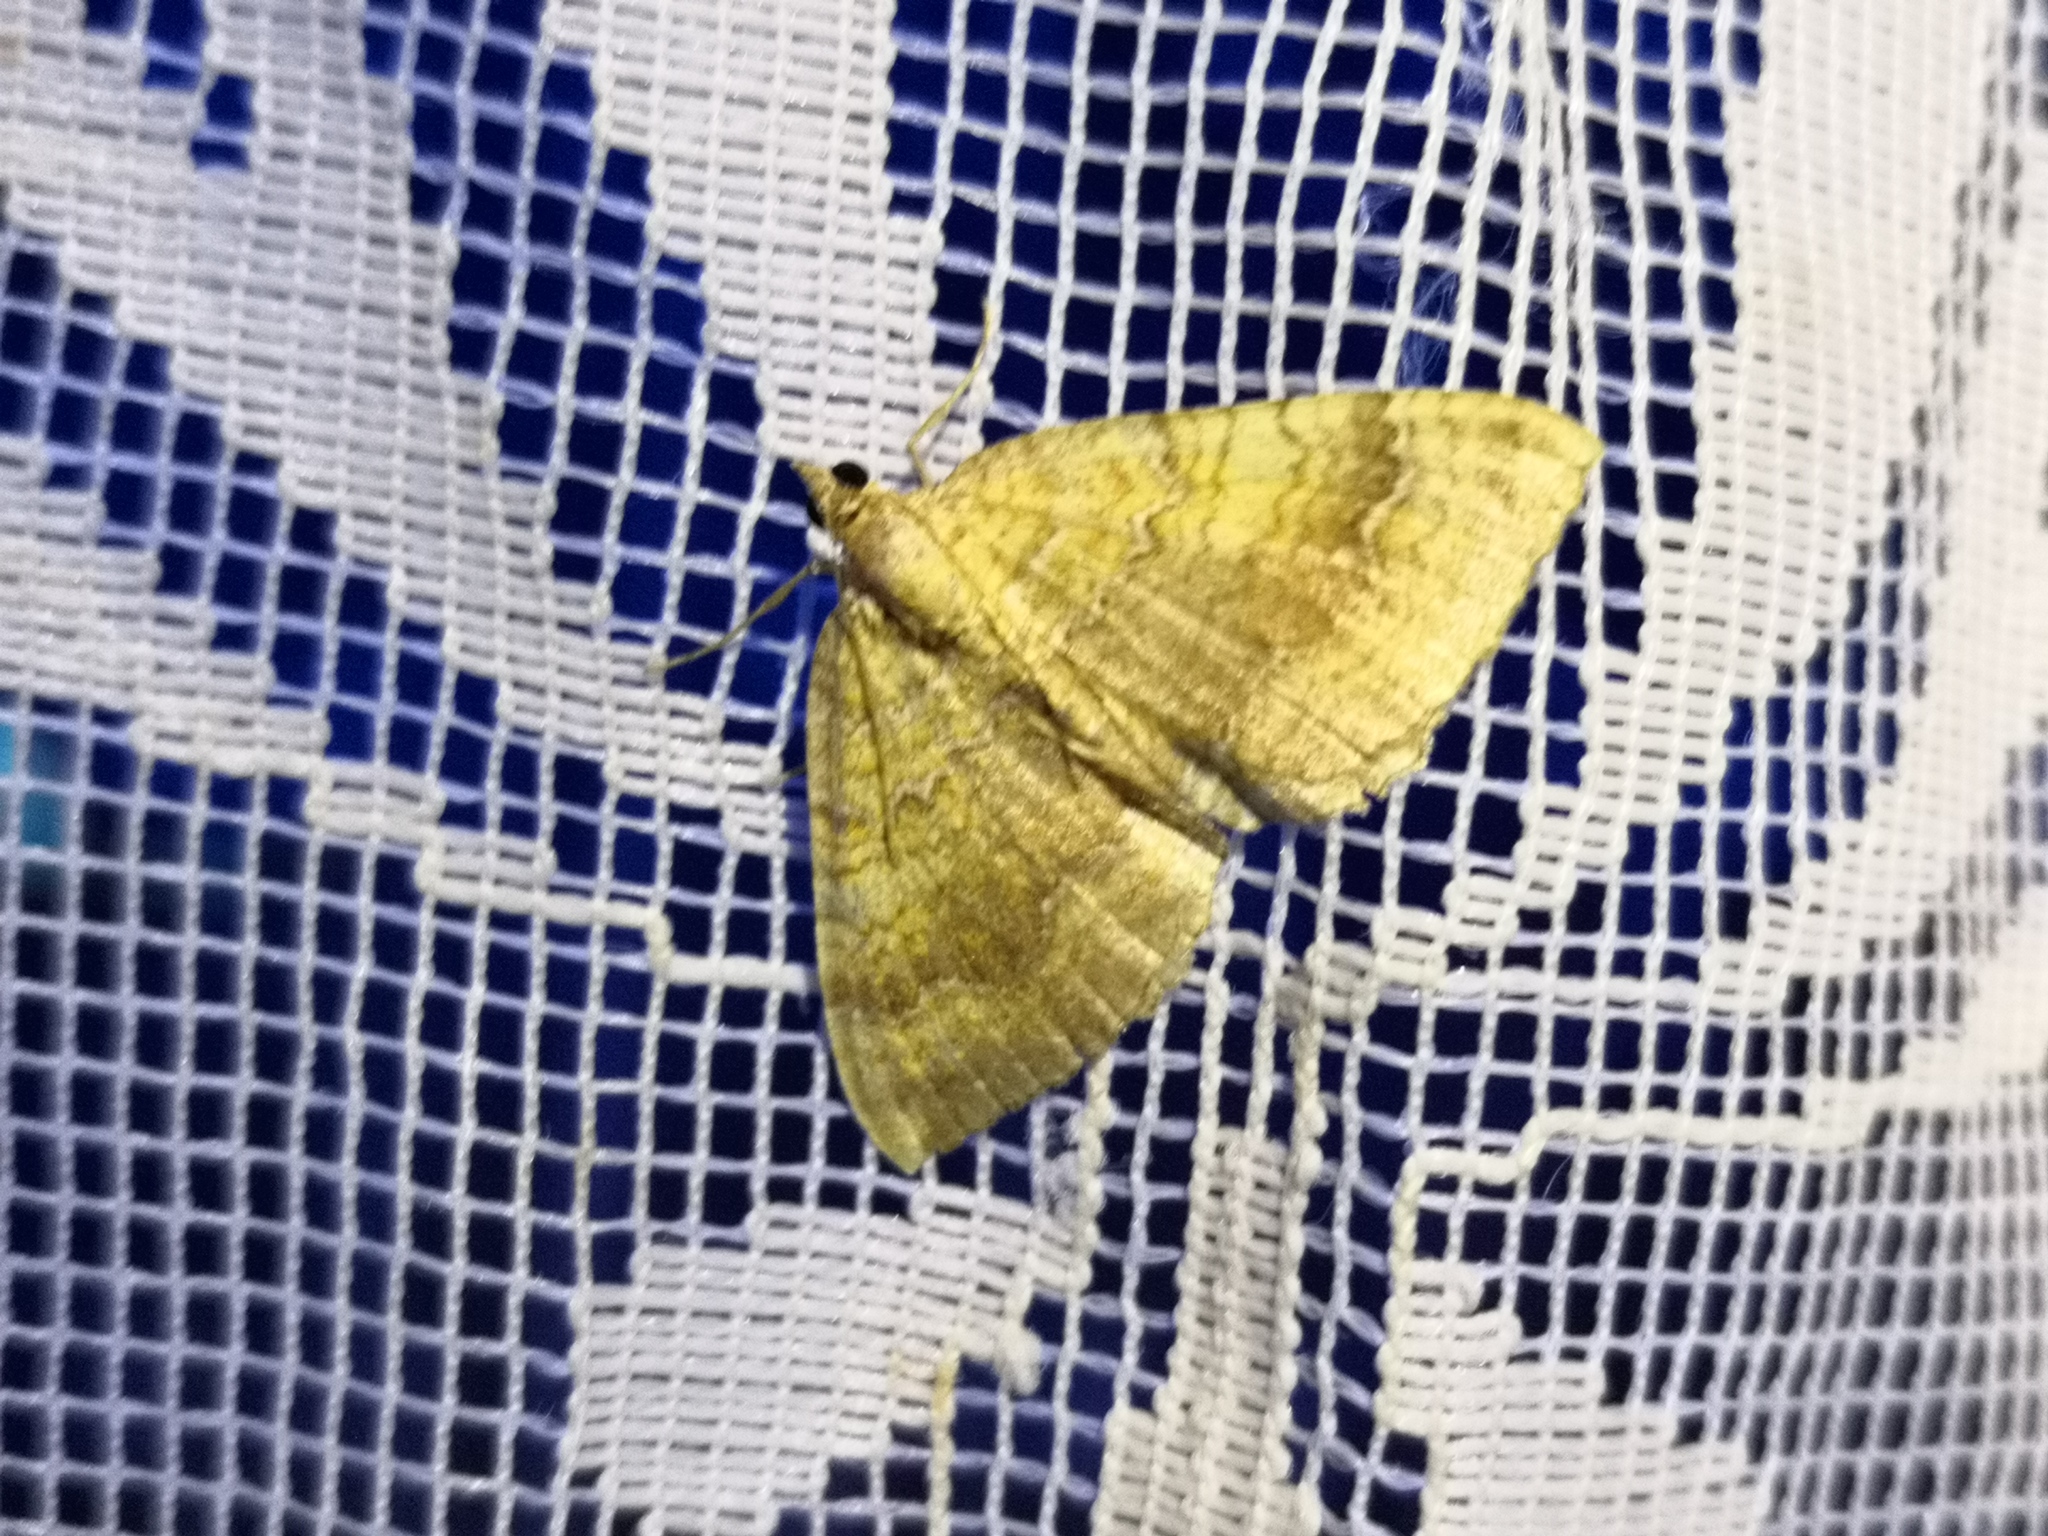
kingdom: Animalia
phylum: Arthropoda
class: Insecta
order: Lepidoptera
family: Geometridae
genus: Camptogramma
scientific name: Camptogramma bilineata
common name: Yellow shell
